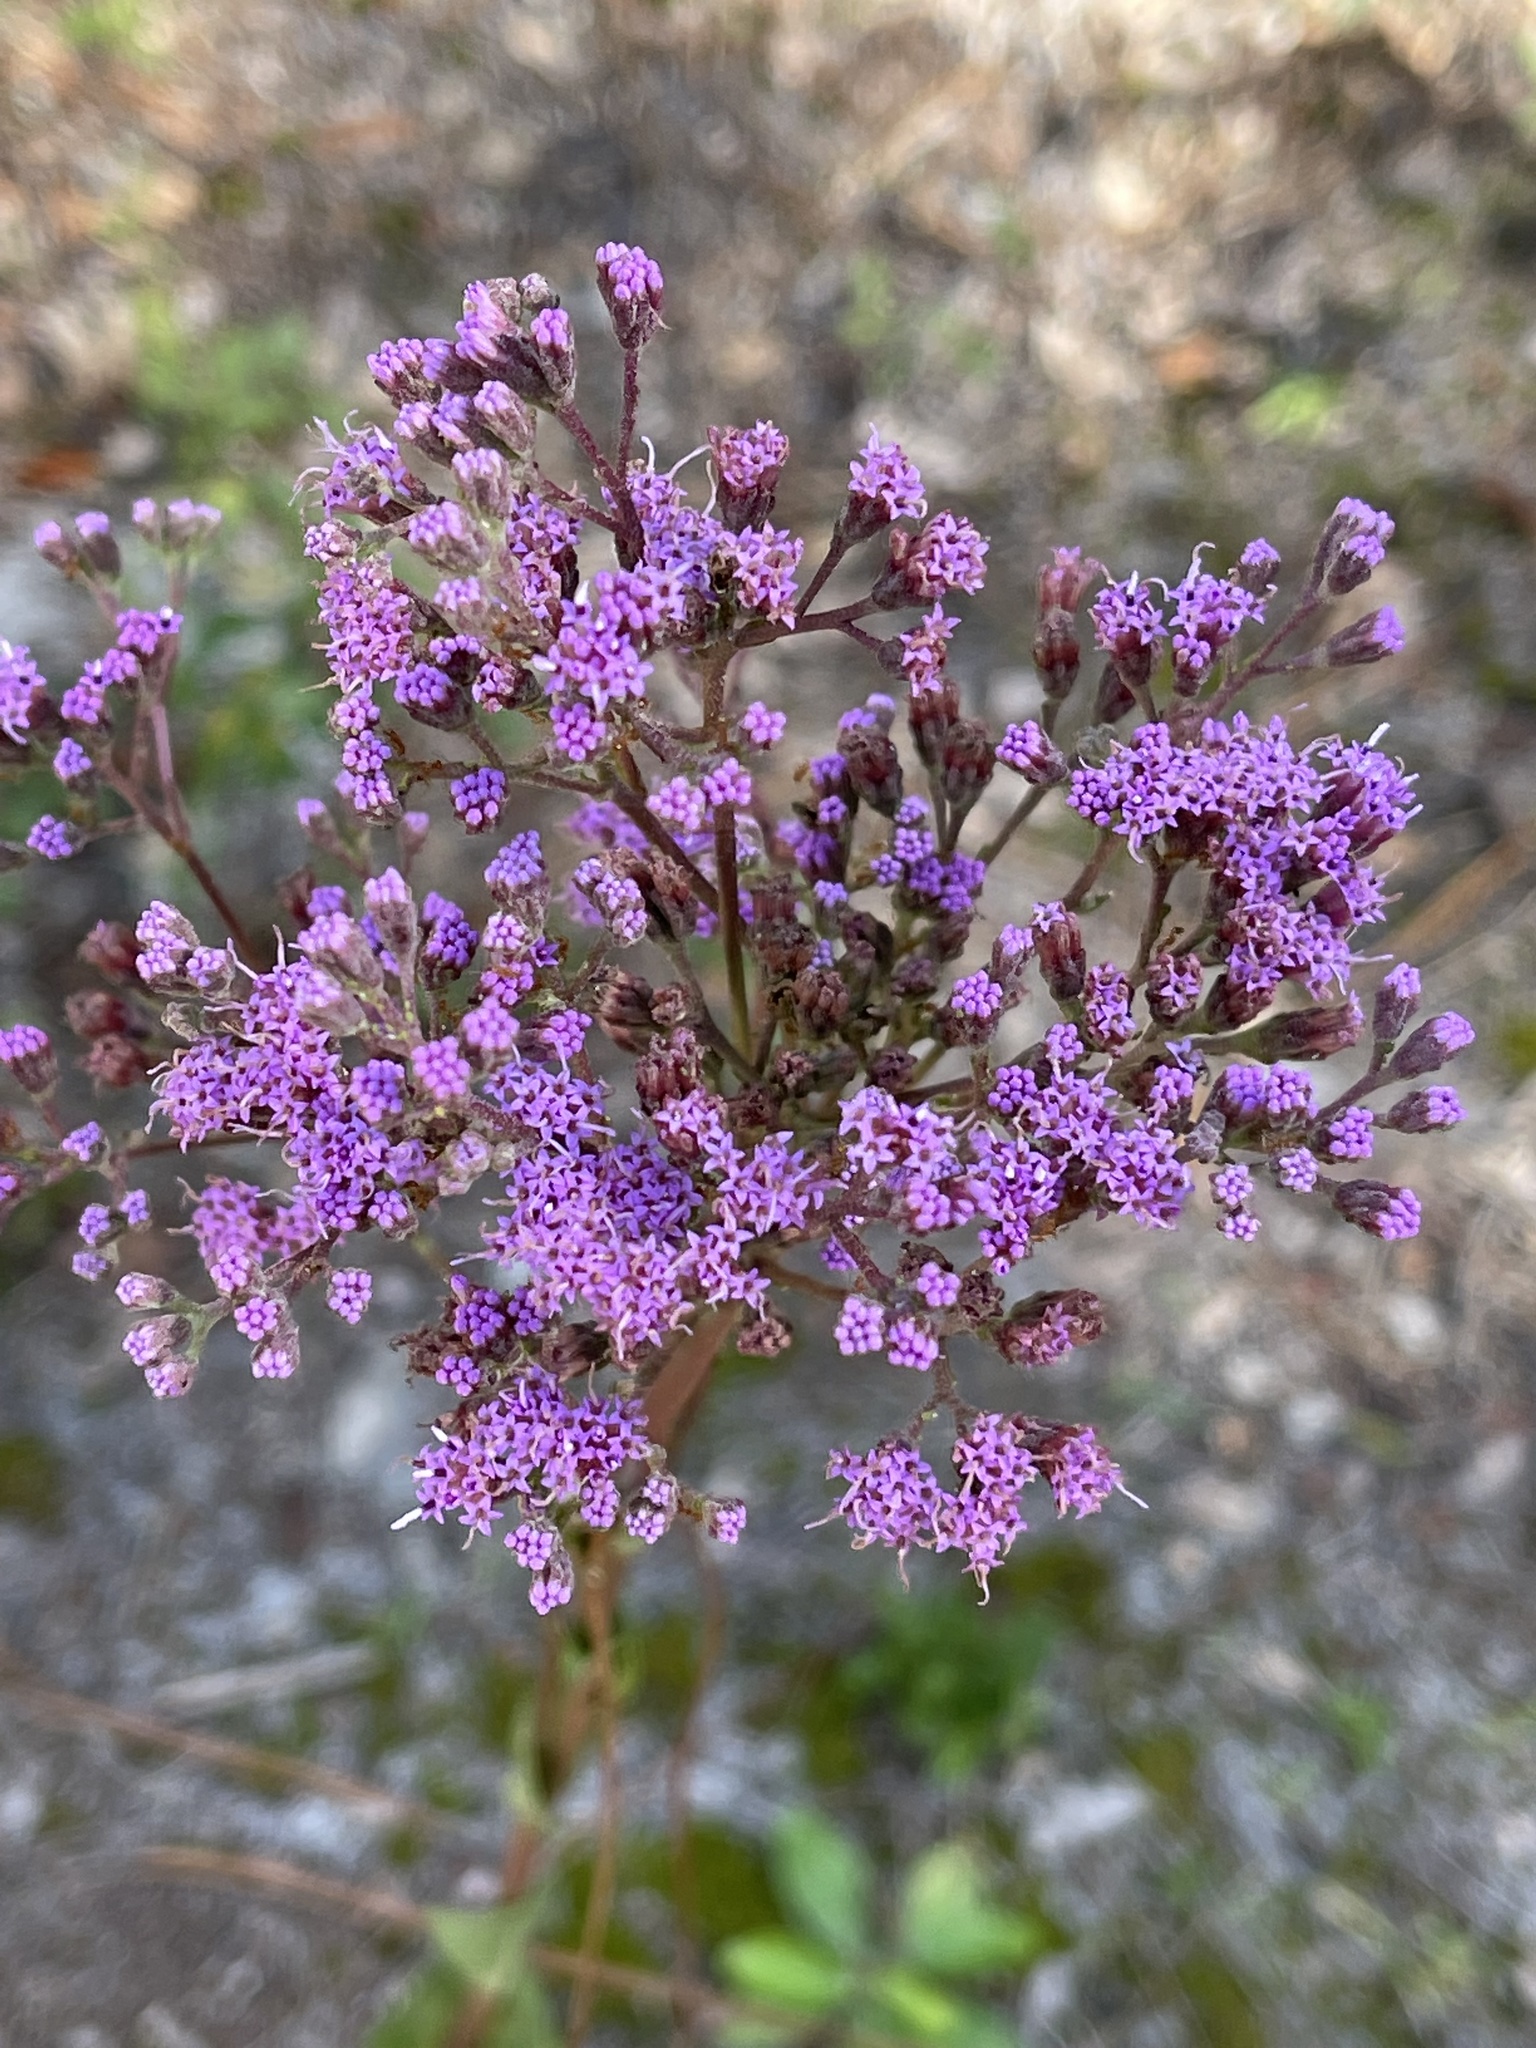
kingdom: Plantae
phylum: Tracheophyta
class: Magnoliopsida
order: Asterales
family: Asteraceae
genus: Carphephorus
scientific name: Carphephorus odoratissimus
